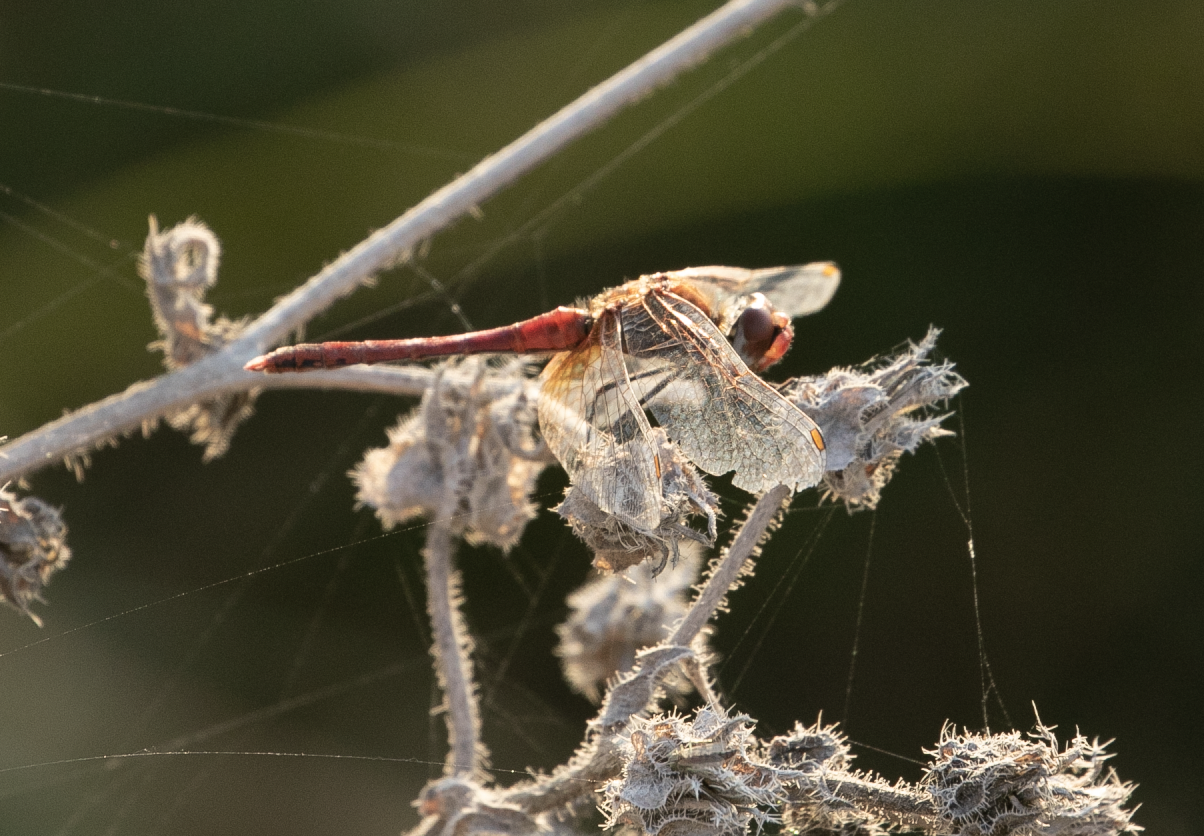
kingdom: Animalia
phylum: Arthropoda
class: Insecta
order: Odonata
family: Libellulidae
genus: Sympetrum
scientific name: Sympetrum fonscolombii
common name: Red-veined darter
